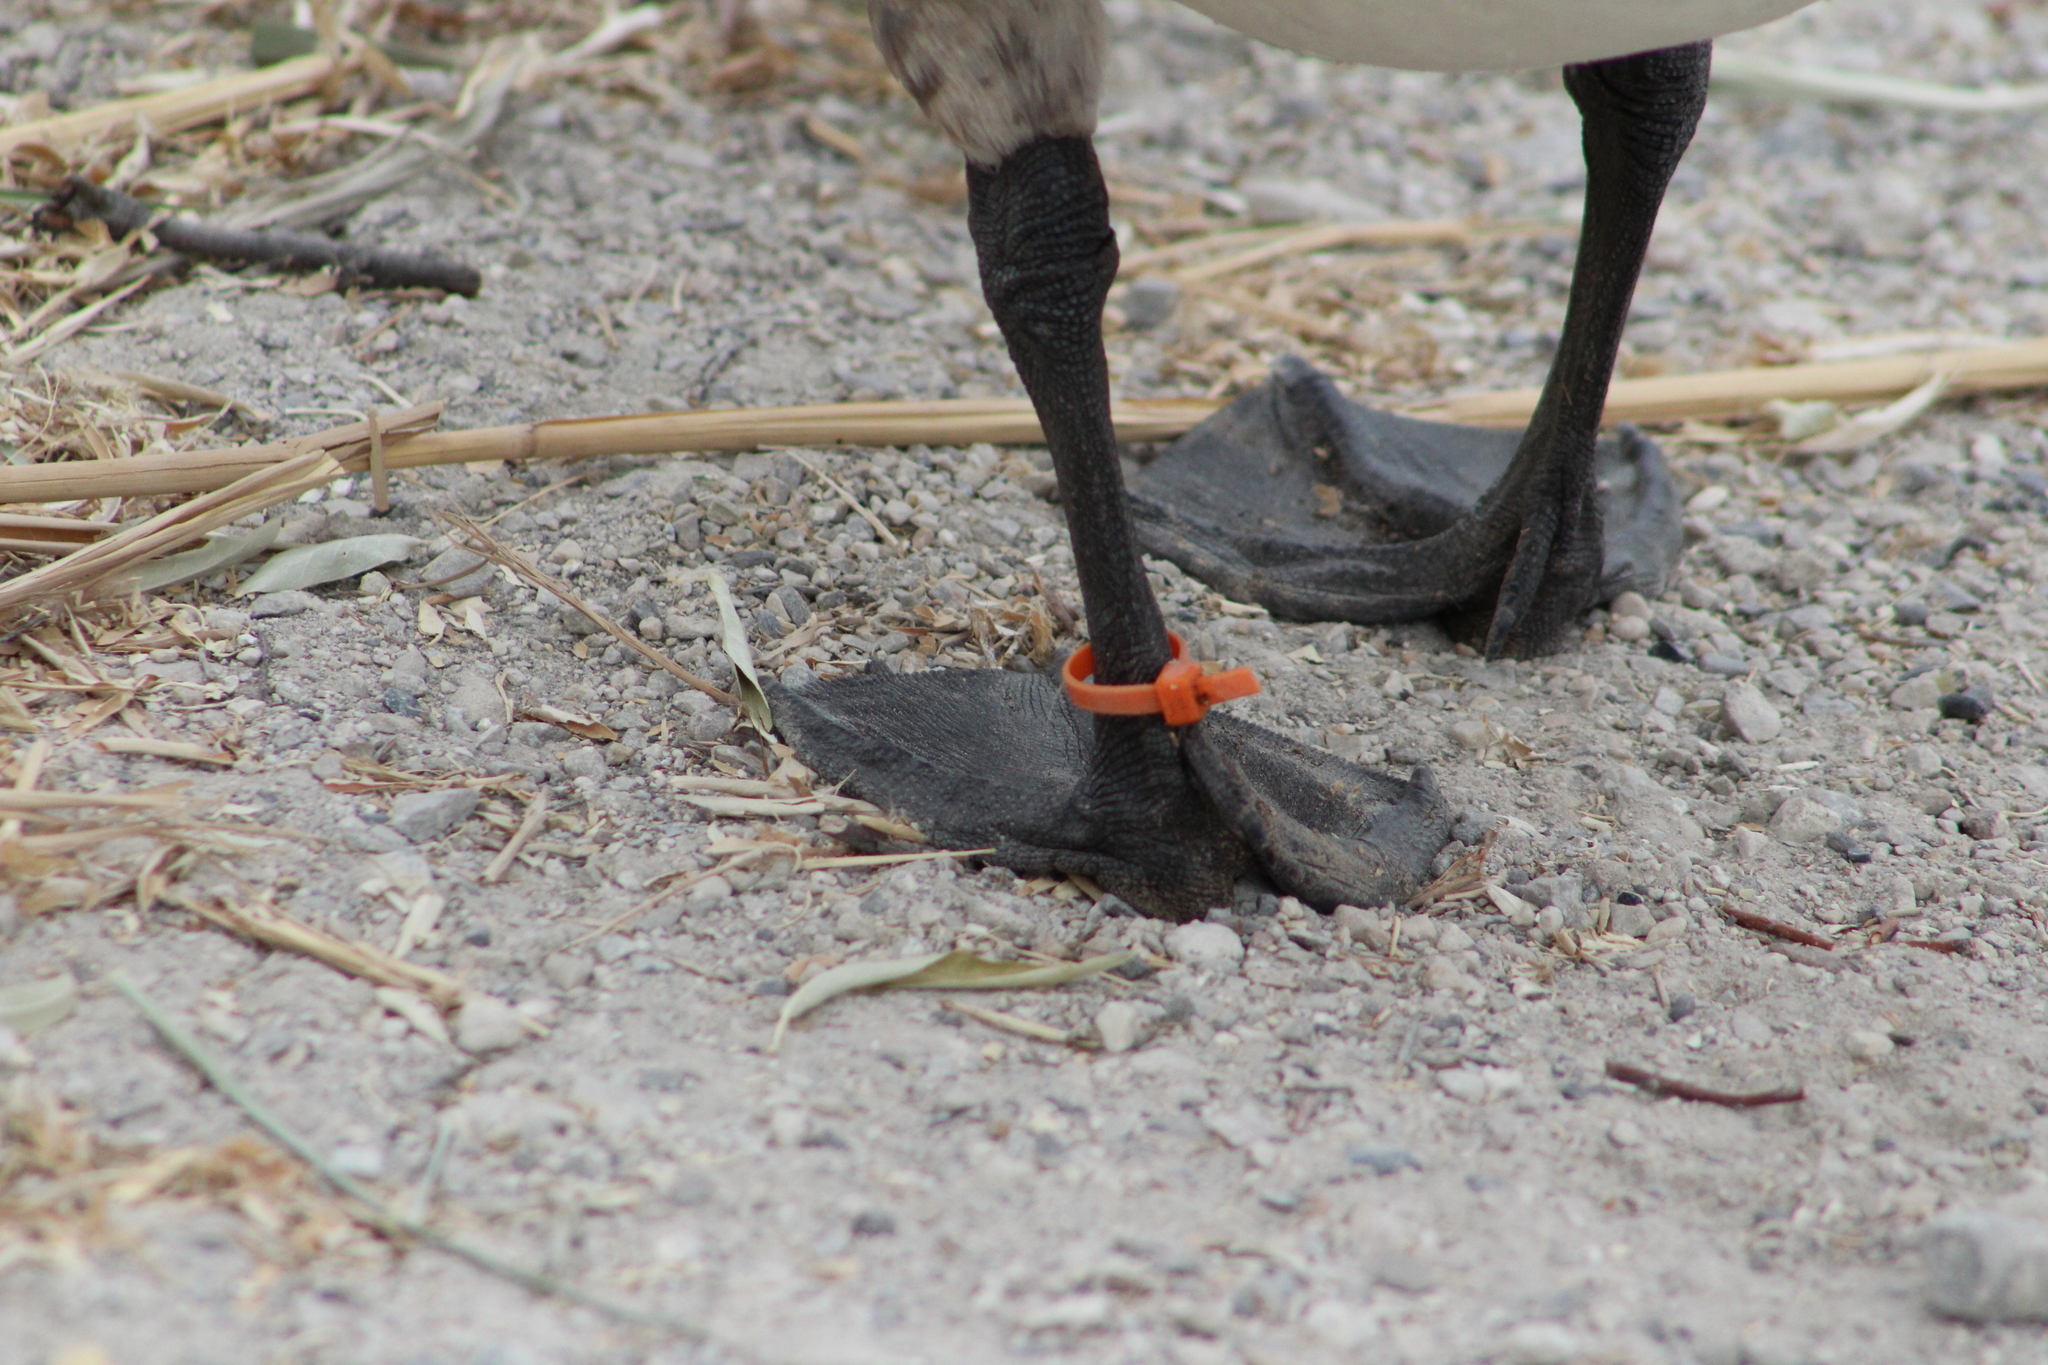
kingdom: Animalia
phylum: Chordata
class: Aves
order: Anseriformes
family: Anatidae
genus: Branta
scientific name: Branta canadensis
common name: Canada goose
